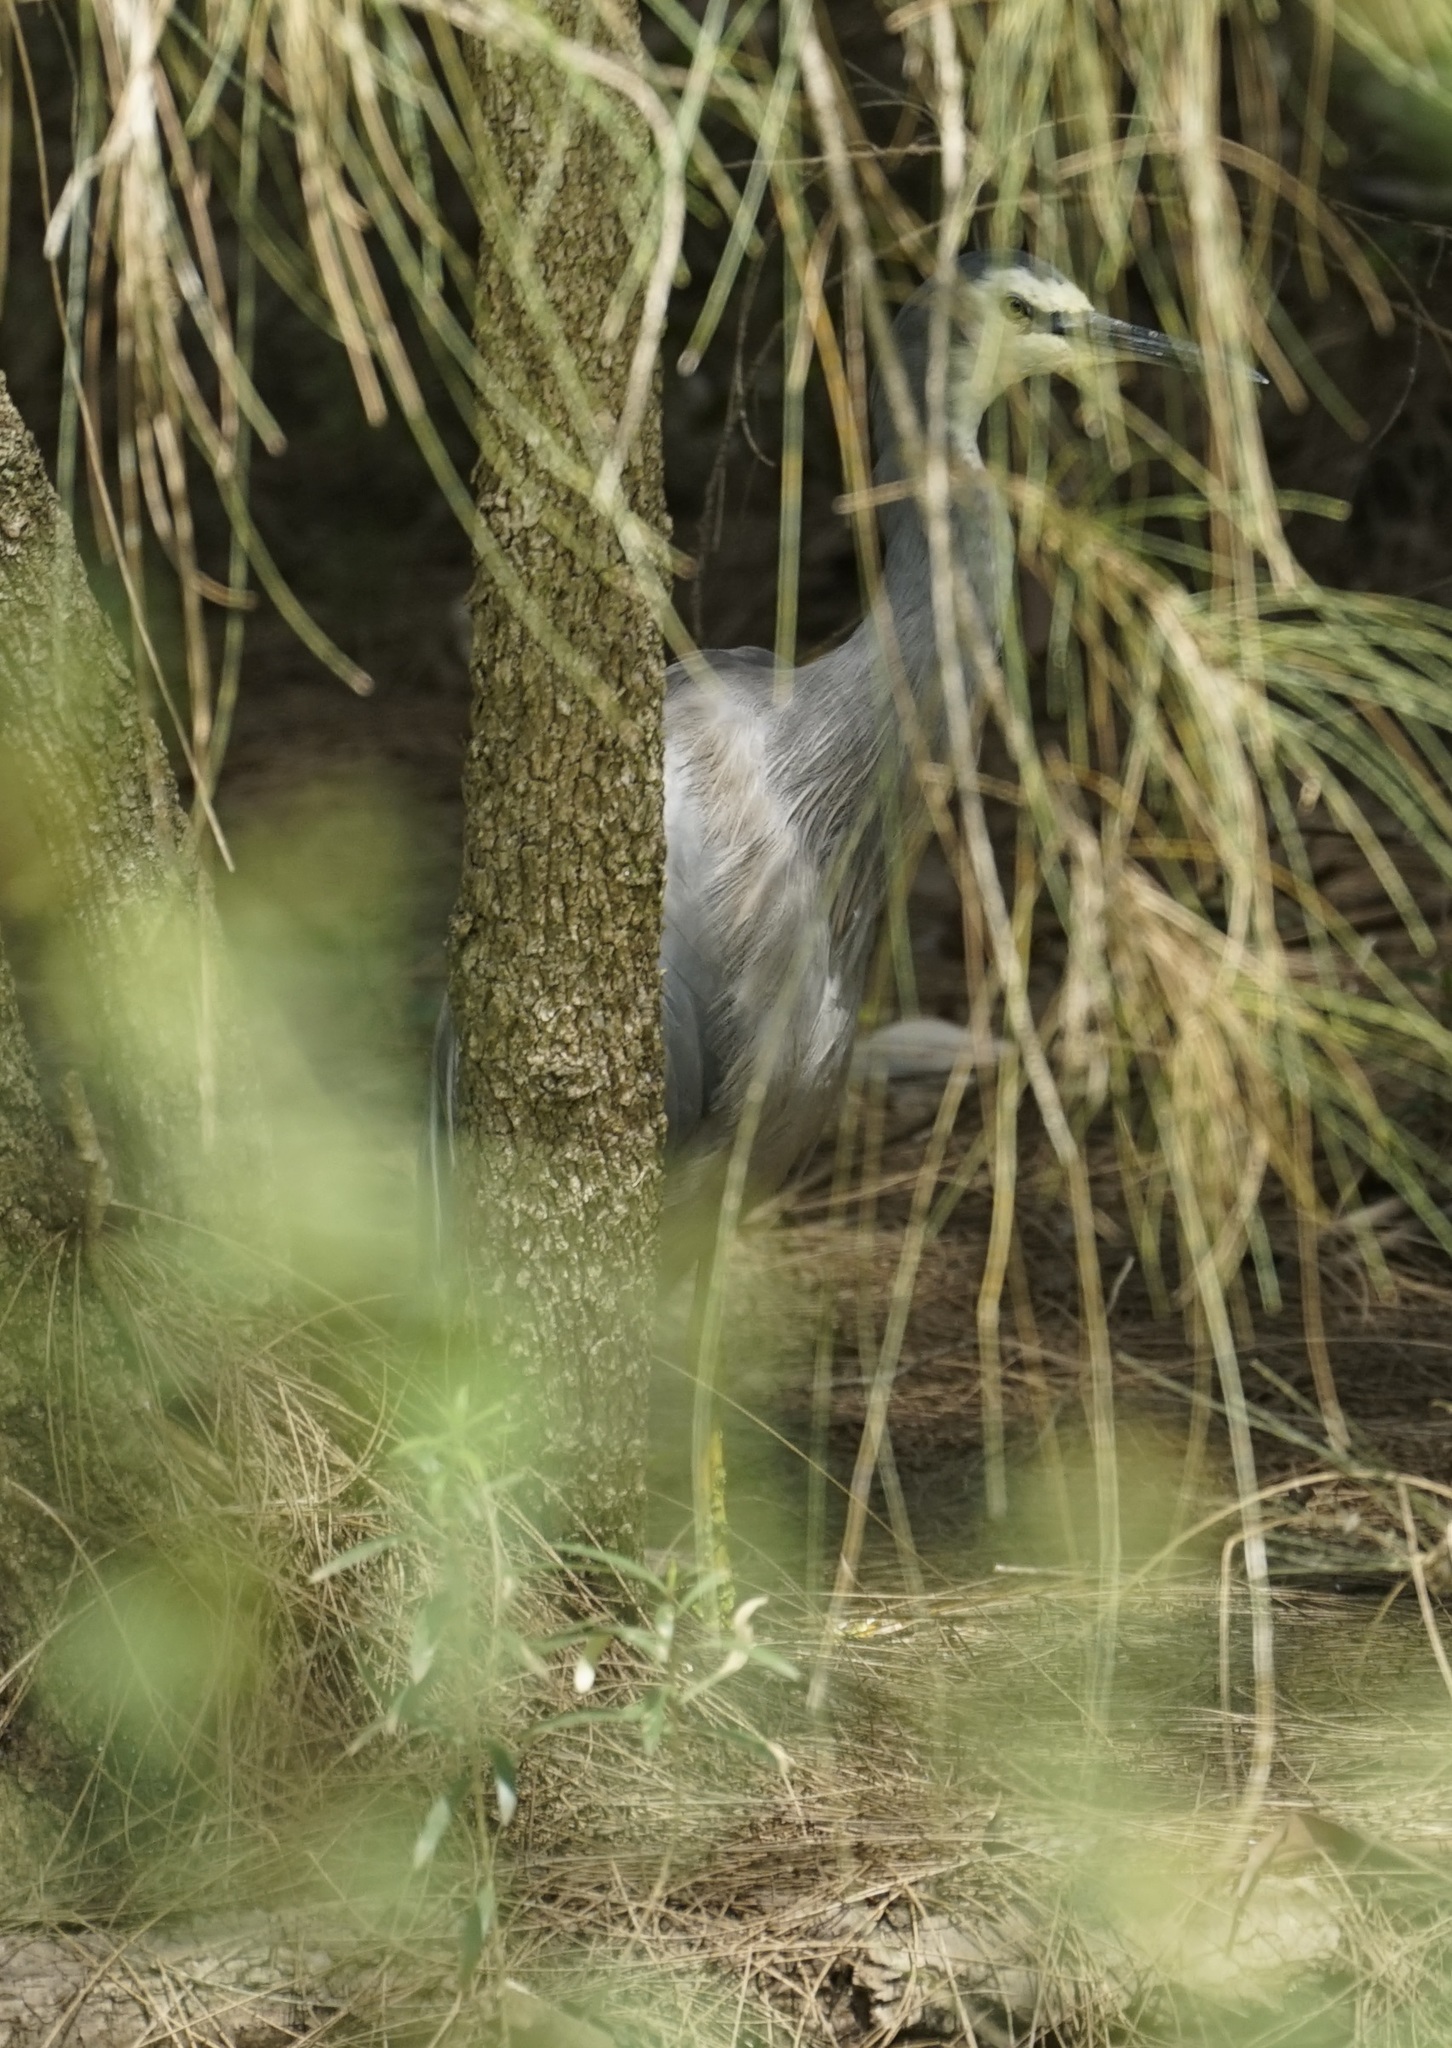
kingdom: Animalia
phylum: Chordata
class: Aves
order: Pelecaniformes
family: Ardeidae
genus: Egretta
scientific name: Egretta novaehollandiae
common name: White-faced heron
